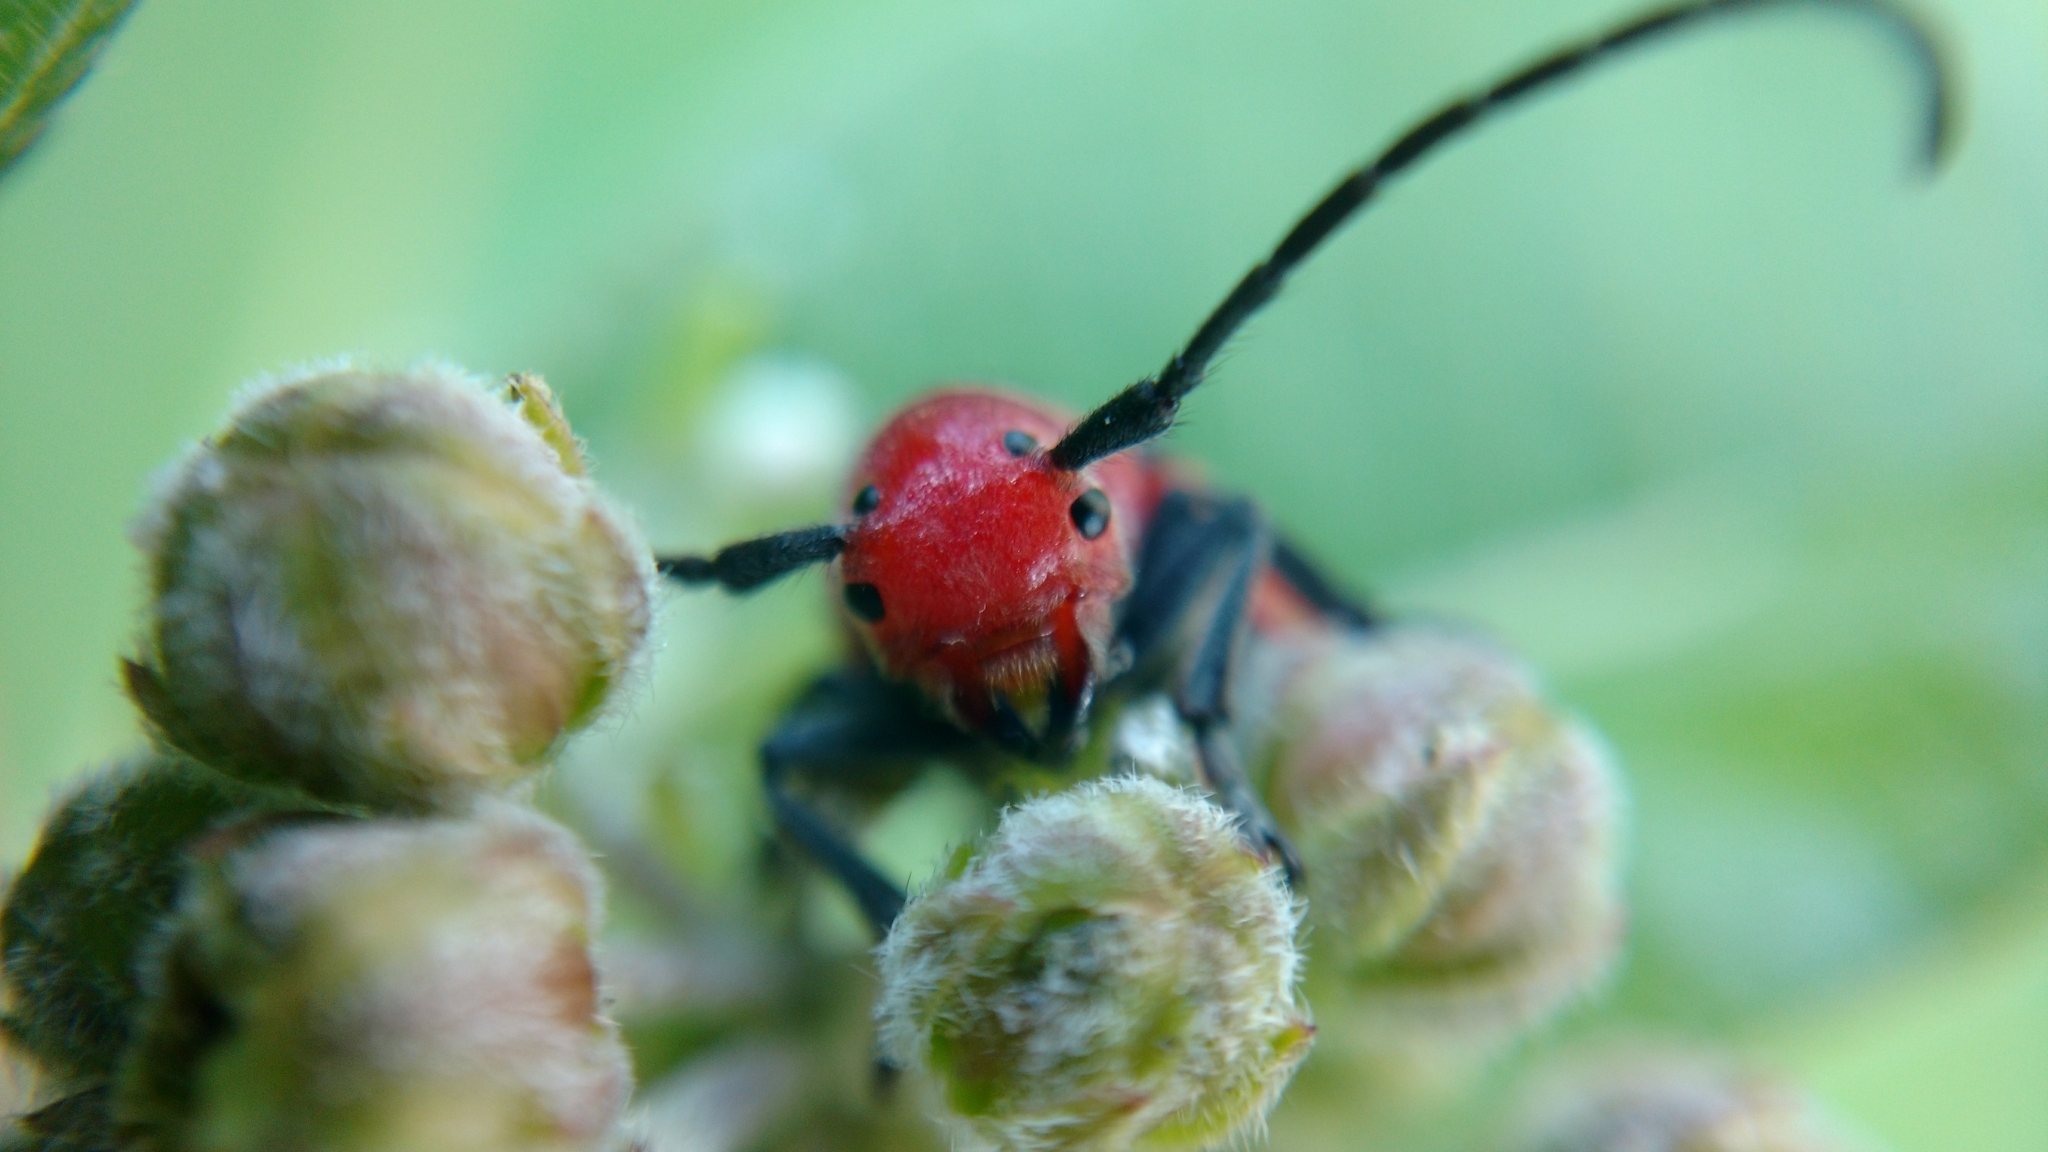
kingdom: Animalia
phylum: Arthropoda
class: Insecta
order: Coleoptera
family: Cerambycidae
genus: Tetraopes
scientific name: Tetraopes tetrophthalmus
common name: Red milkweed beetle
